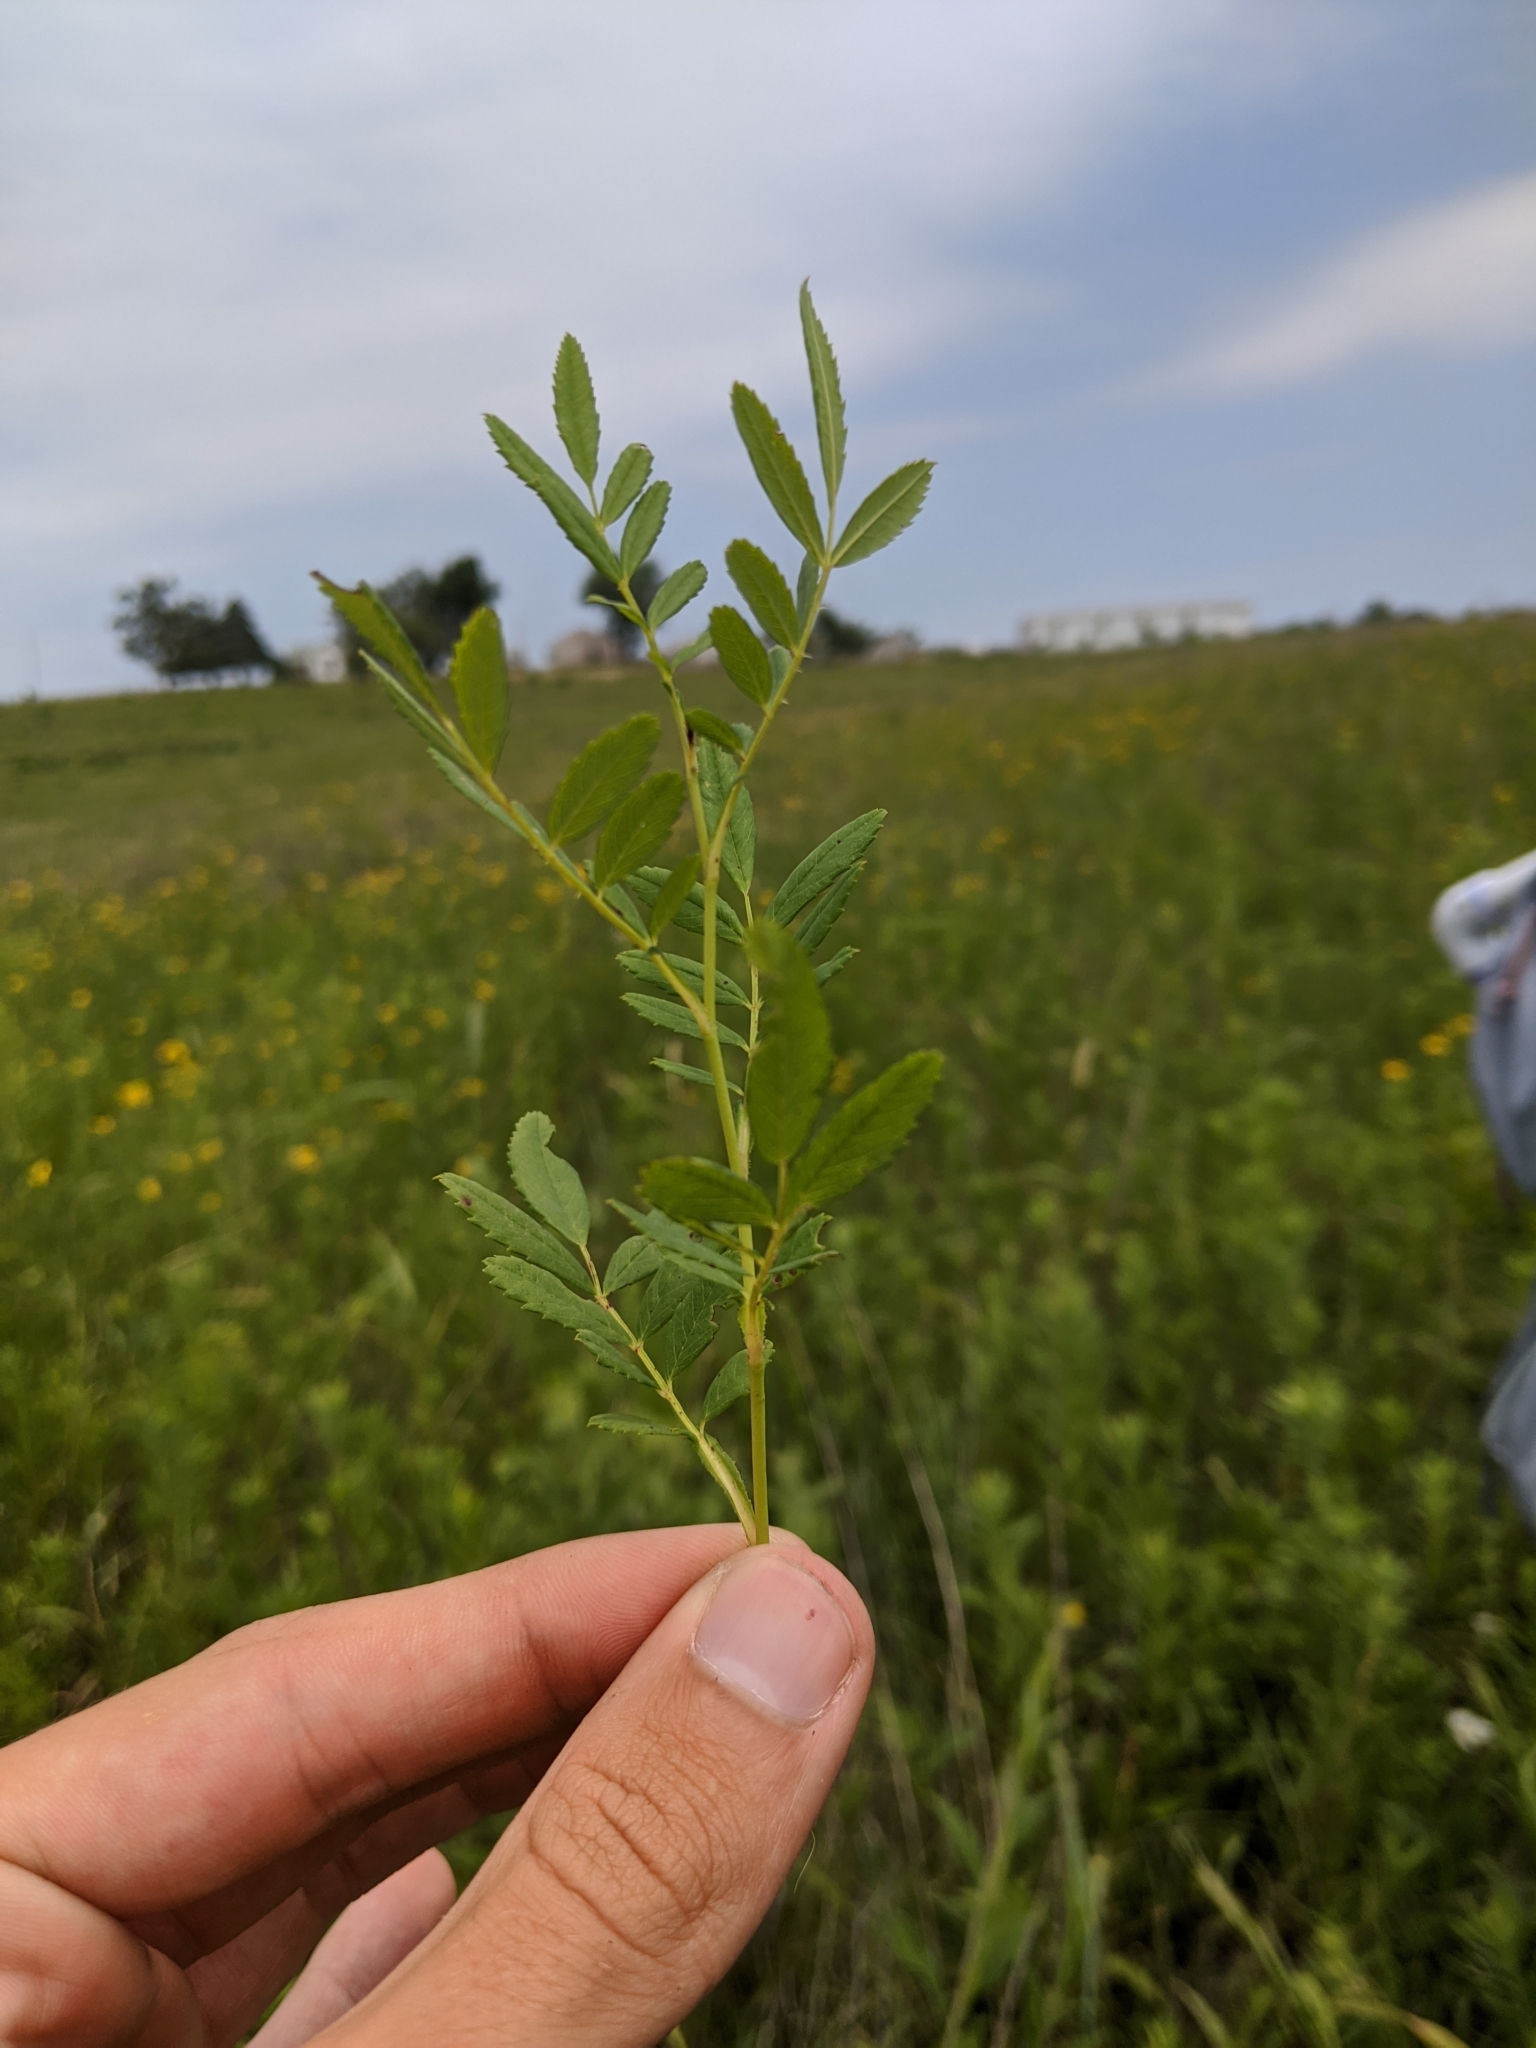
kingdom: Plantae
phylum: Tracheophyta
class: Magnoliopsida
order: Rosales
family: Rosaceae
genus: Rosa
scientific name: Rosa foliolosa
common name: White prairie rose
